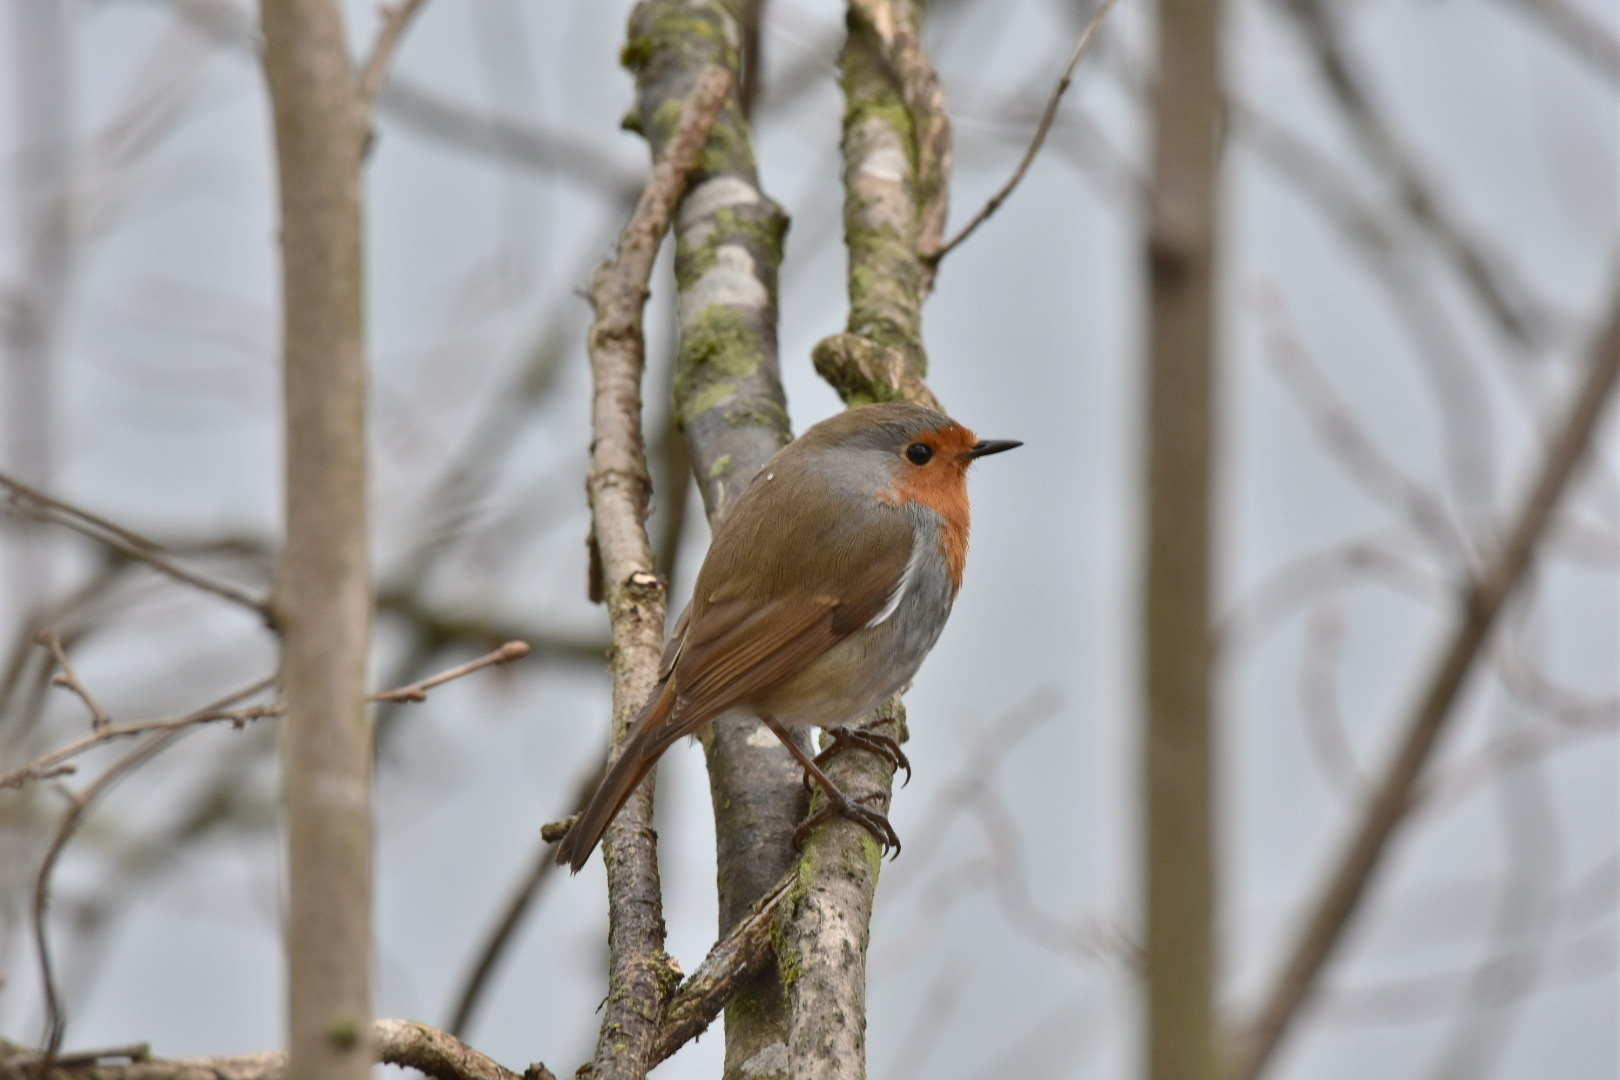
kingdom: Animalia
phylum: Chordata
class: Aves
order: Passeriformes
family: Muscicapidae
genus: Erithacus
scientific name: Erithacus rubecula
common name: European robin
